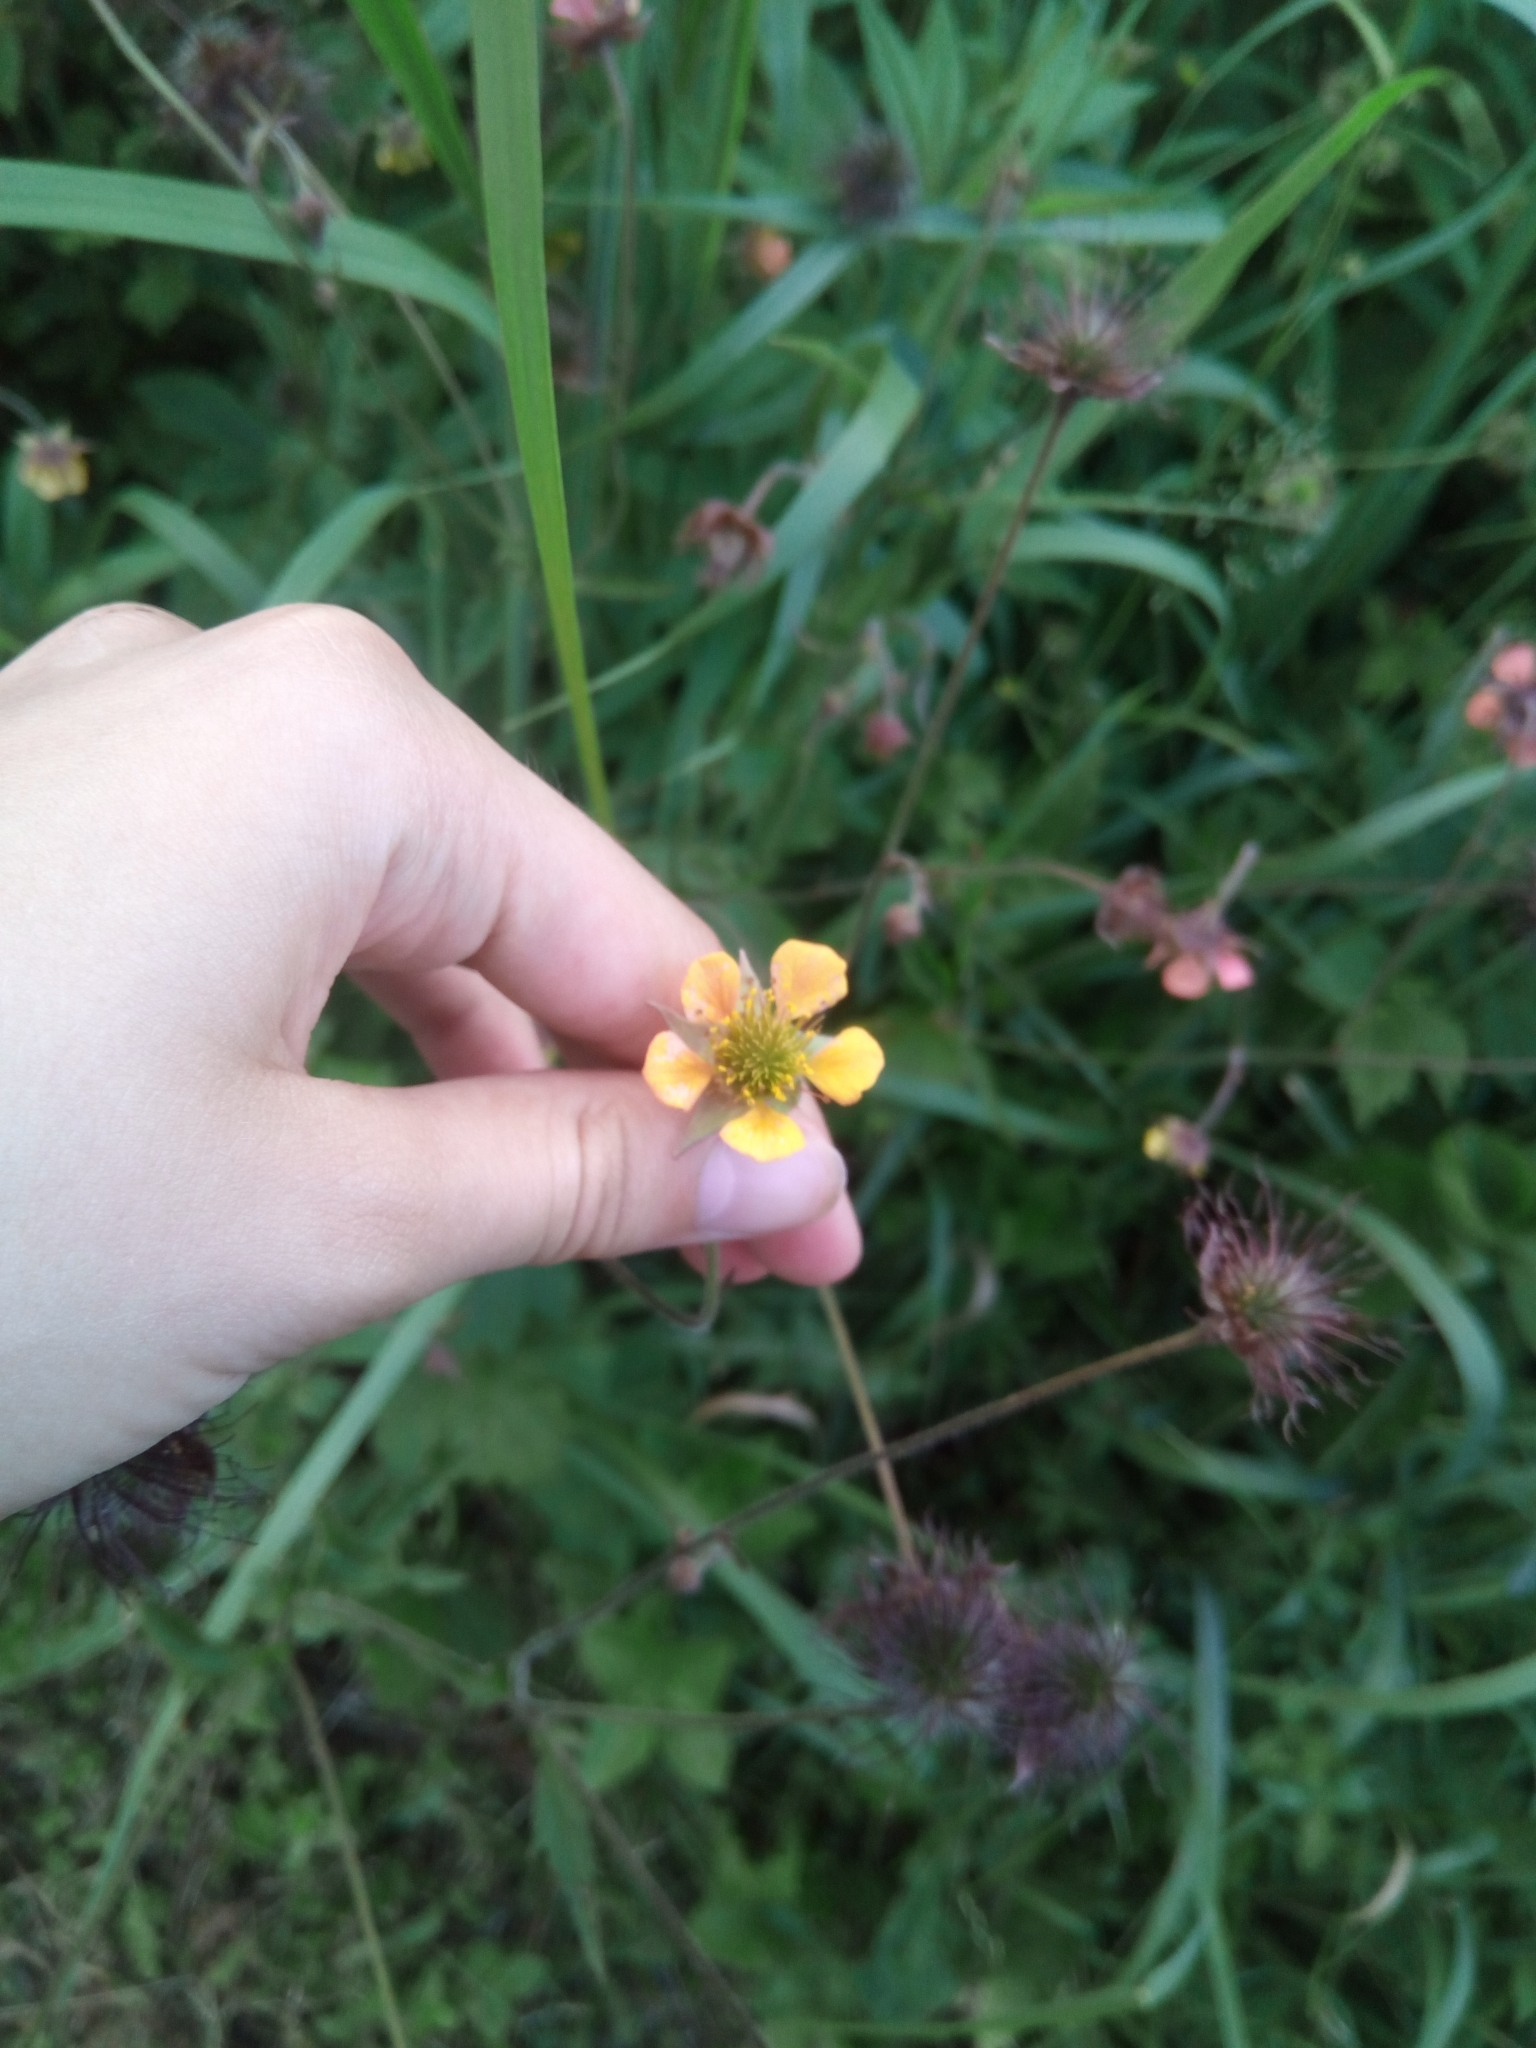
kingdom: Plantae
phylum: Tracheophyta
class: Magnoliopsida
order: Rosales
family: Rosaceae
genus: Geum
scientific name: Geum intermedium
